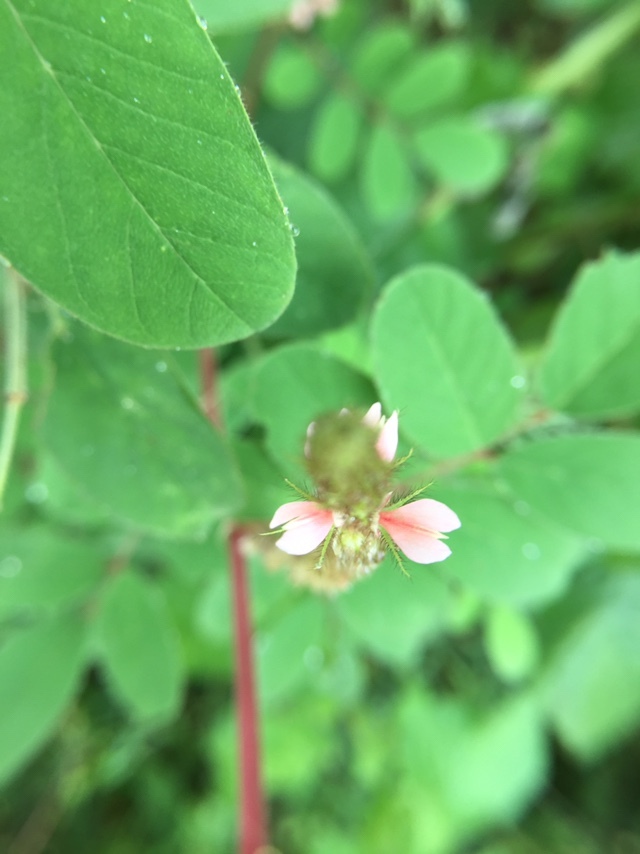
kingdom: Plantae
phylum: Tracheophyta
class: Magnoliopsida
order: Fabales
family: Fabaceae
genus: Indigofera
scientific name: Indigofera hirsuta
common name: Hairy indigo
